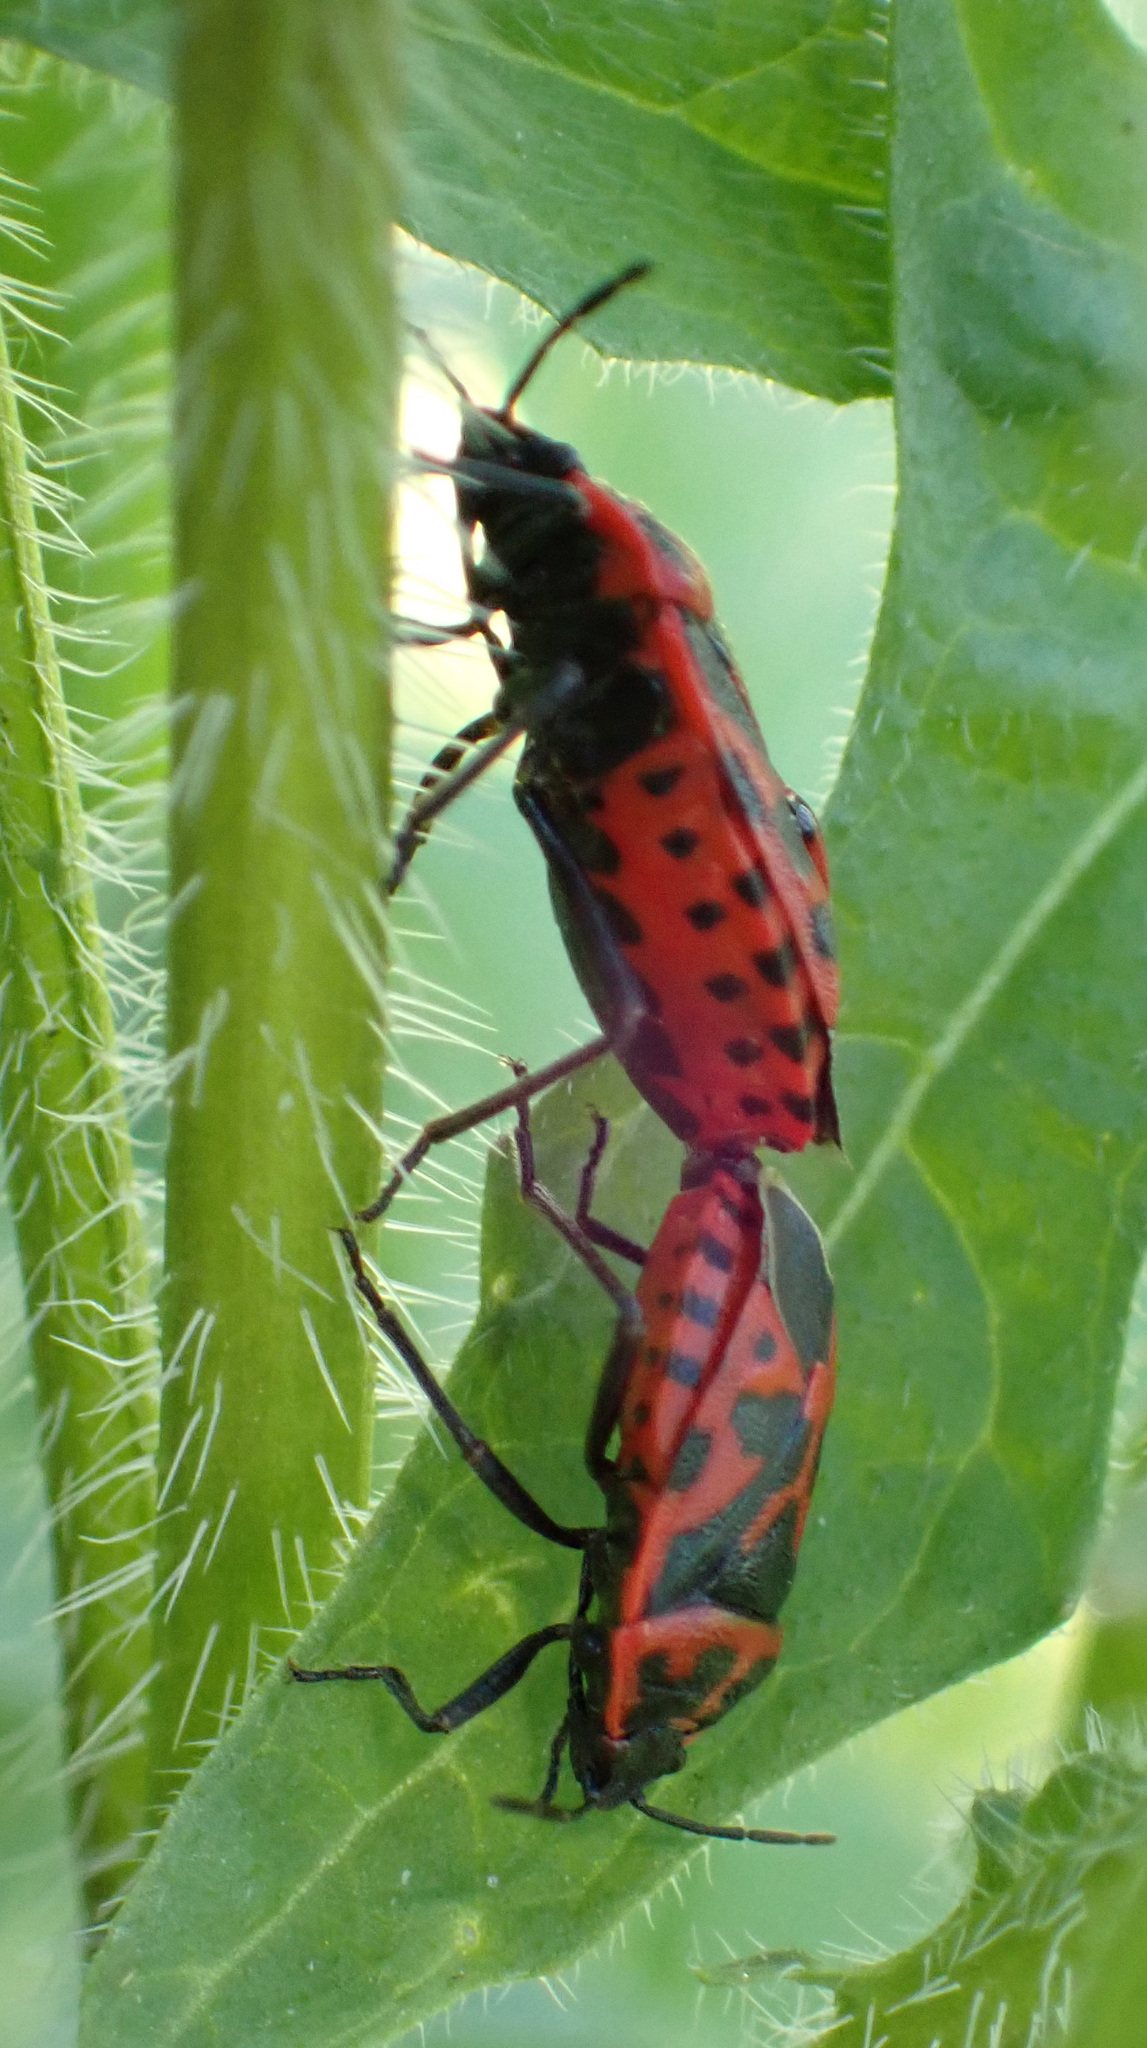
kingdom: Animalia
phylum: Arthropoda
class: Insecta
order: Hemiptera
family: Pentatomidae
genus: Eurydema
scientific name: Eurydema ventralis
